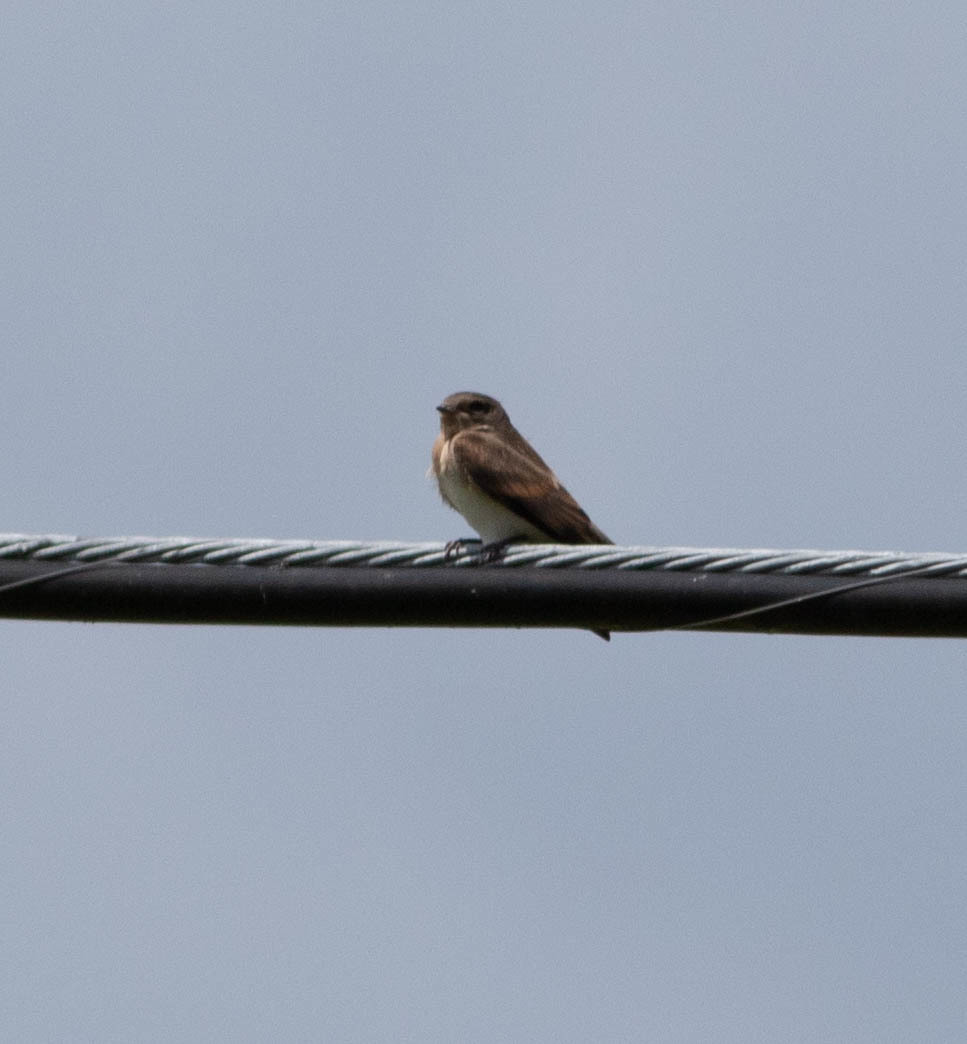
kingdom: Animalia
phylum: Chordata
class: Aves
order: Passeriformes
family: Hirundinidae
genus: Stelgidopteryx
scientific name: Stelgidopteryx serripennis
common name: Northern rough-winged swallow
